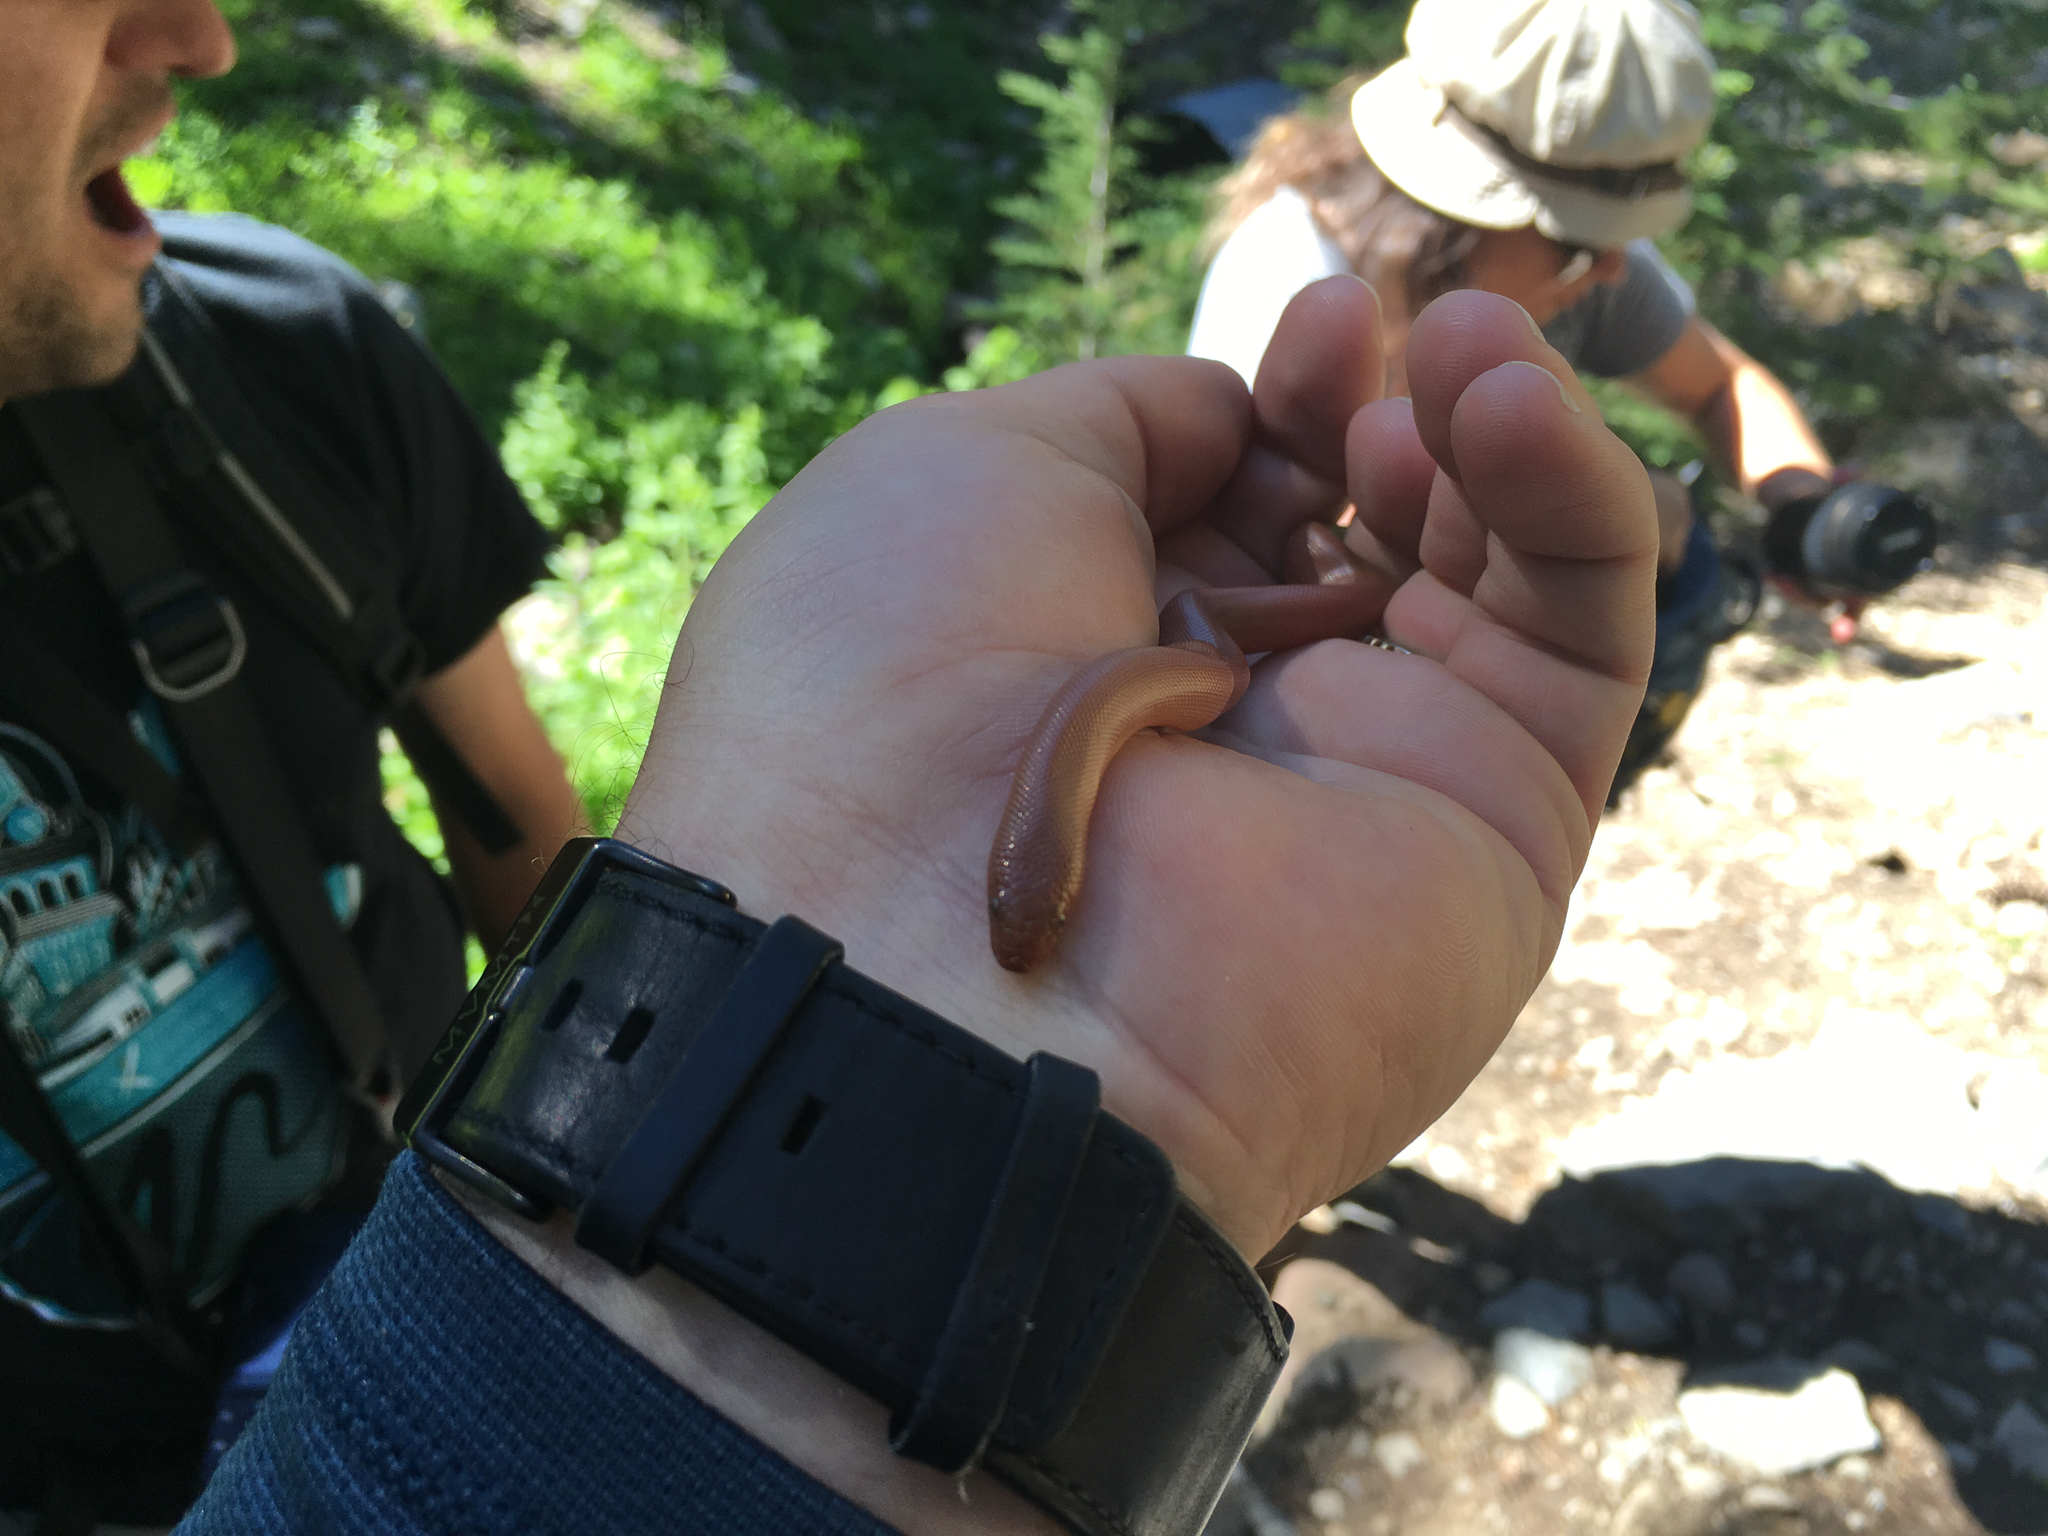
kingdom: Animalia
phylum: Chordata
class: Squamata
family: Boidae
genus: Charina
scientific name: Charina bottae
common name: Northern rubber boa
